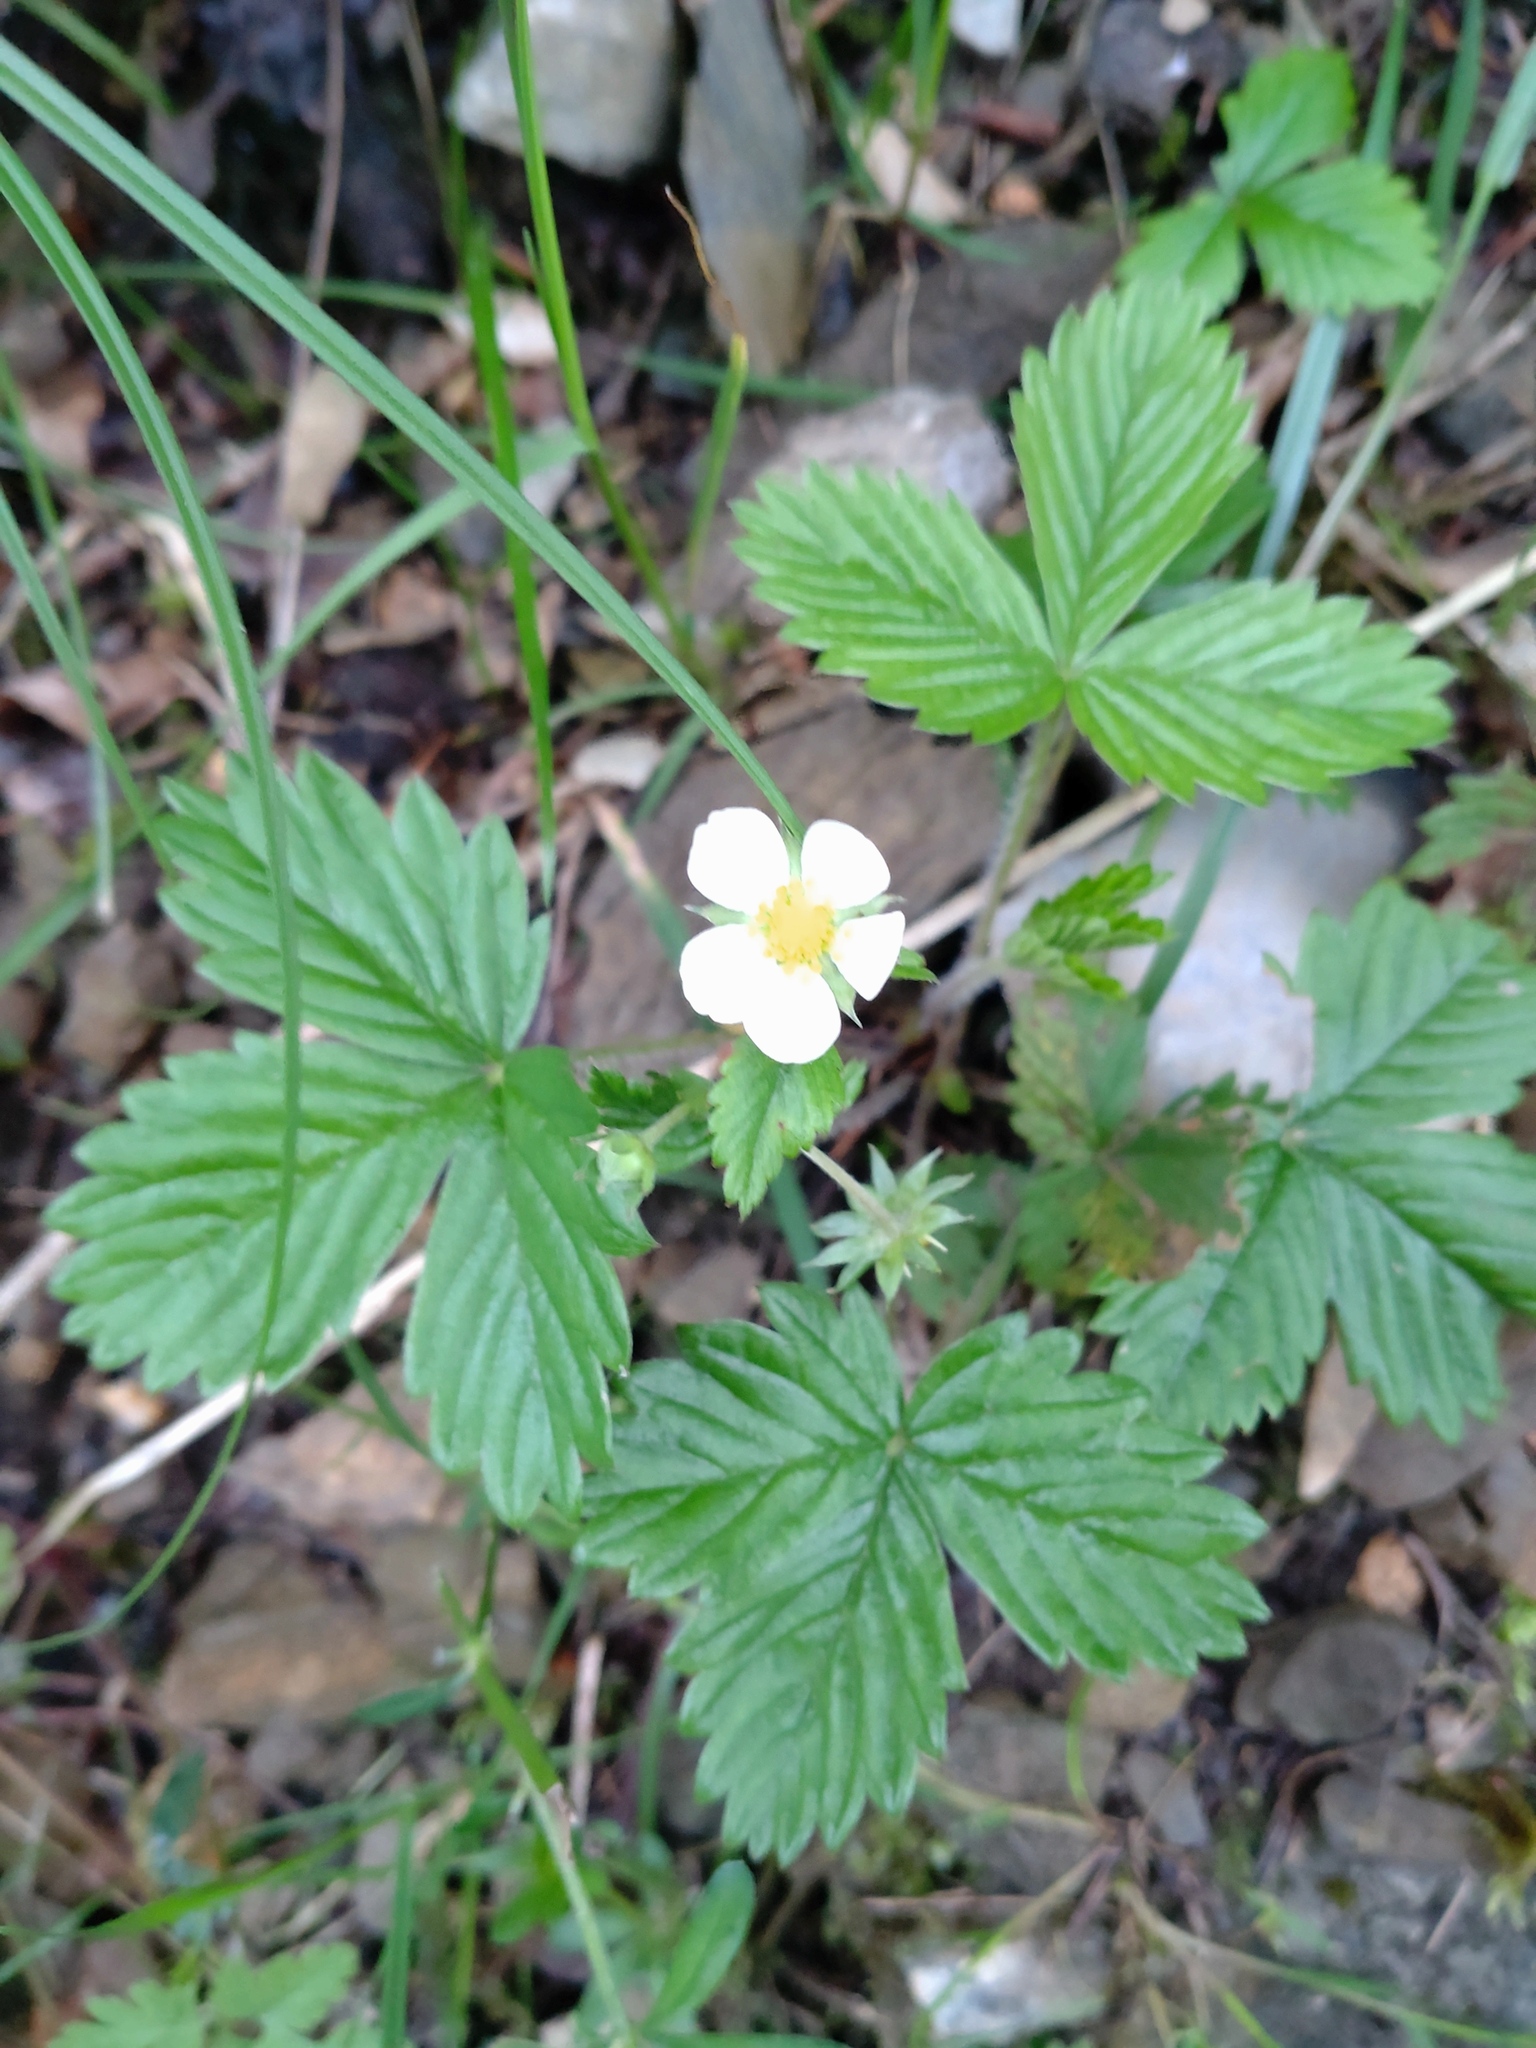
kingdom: Plantae
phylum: Tracheophyta
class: Magnoliopsida
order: Rosales
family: Rosaceae
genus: Fragaria
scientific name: Fragaria vesca
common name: Wild strawberry
